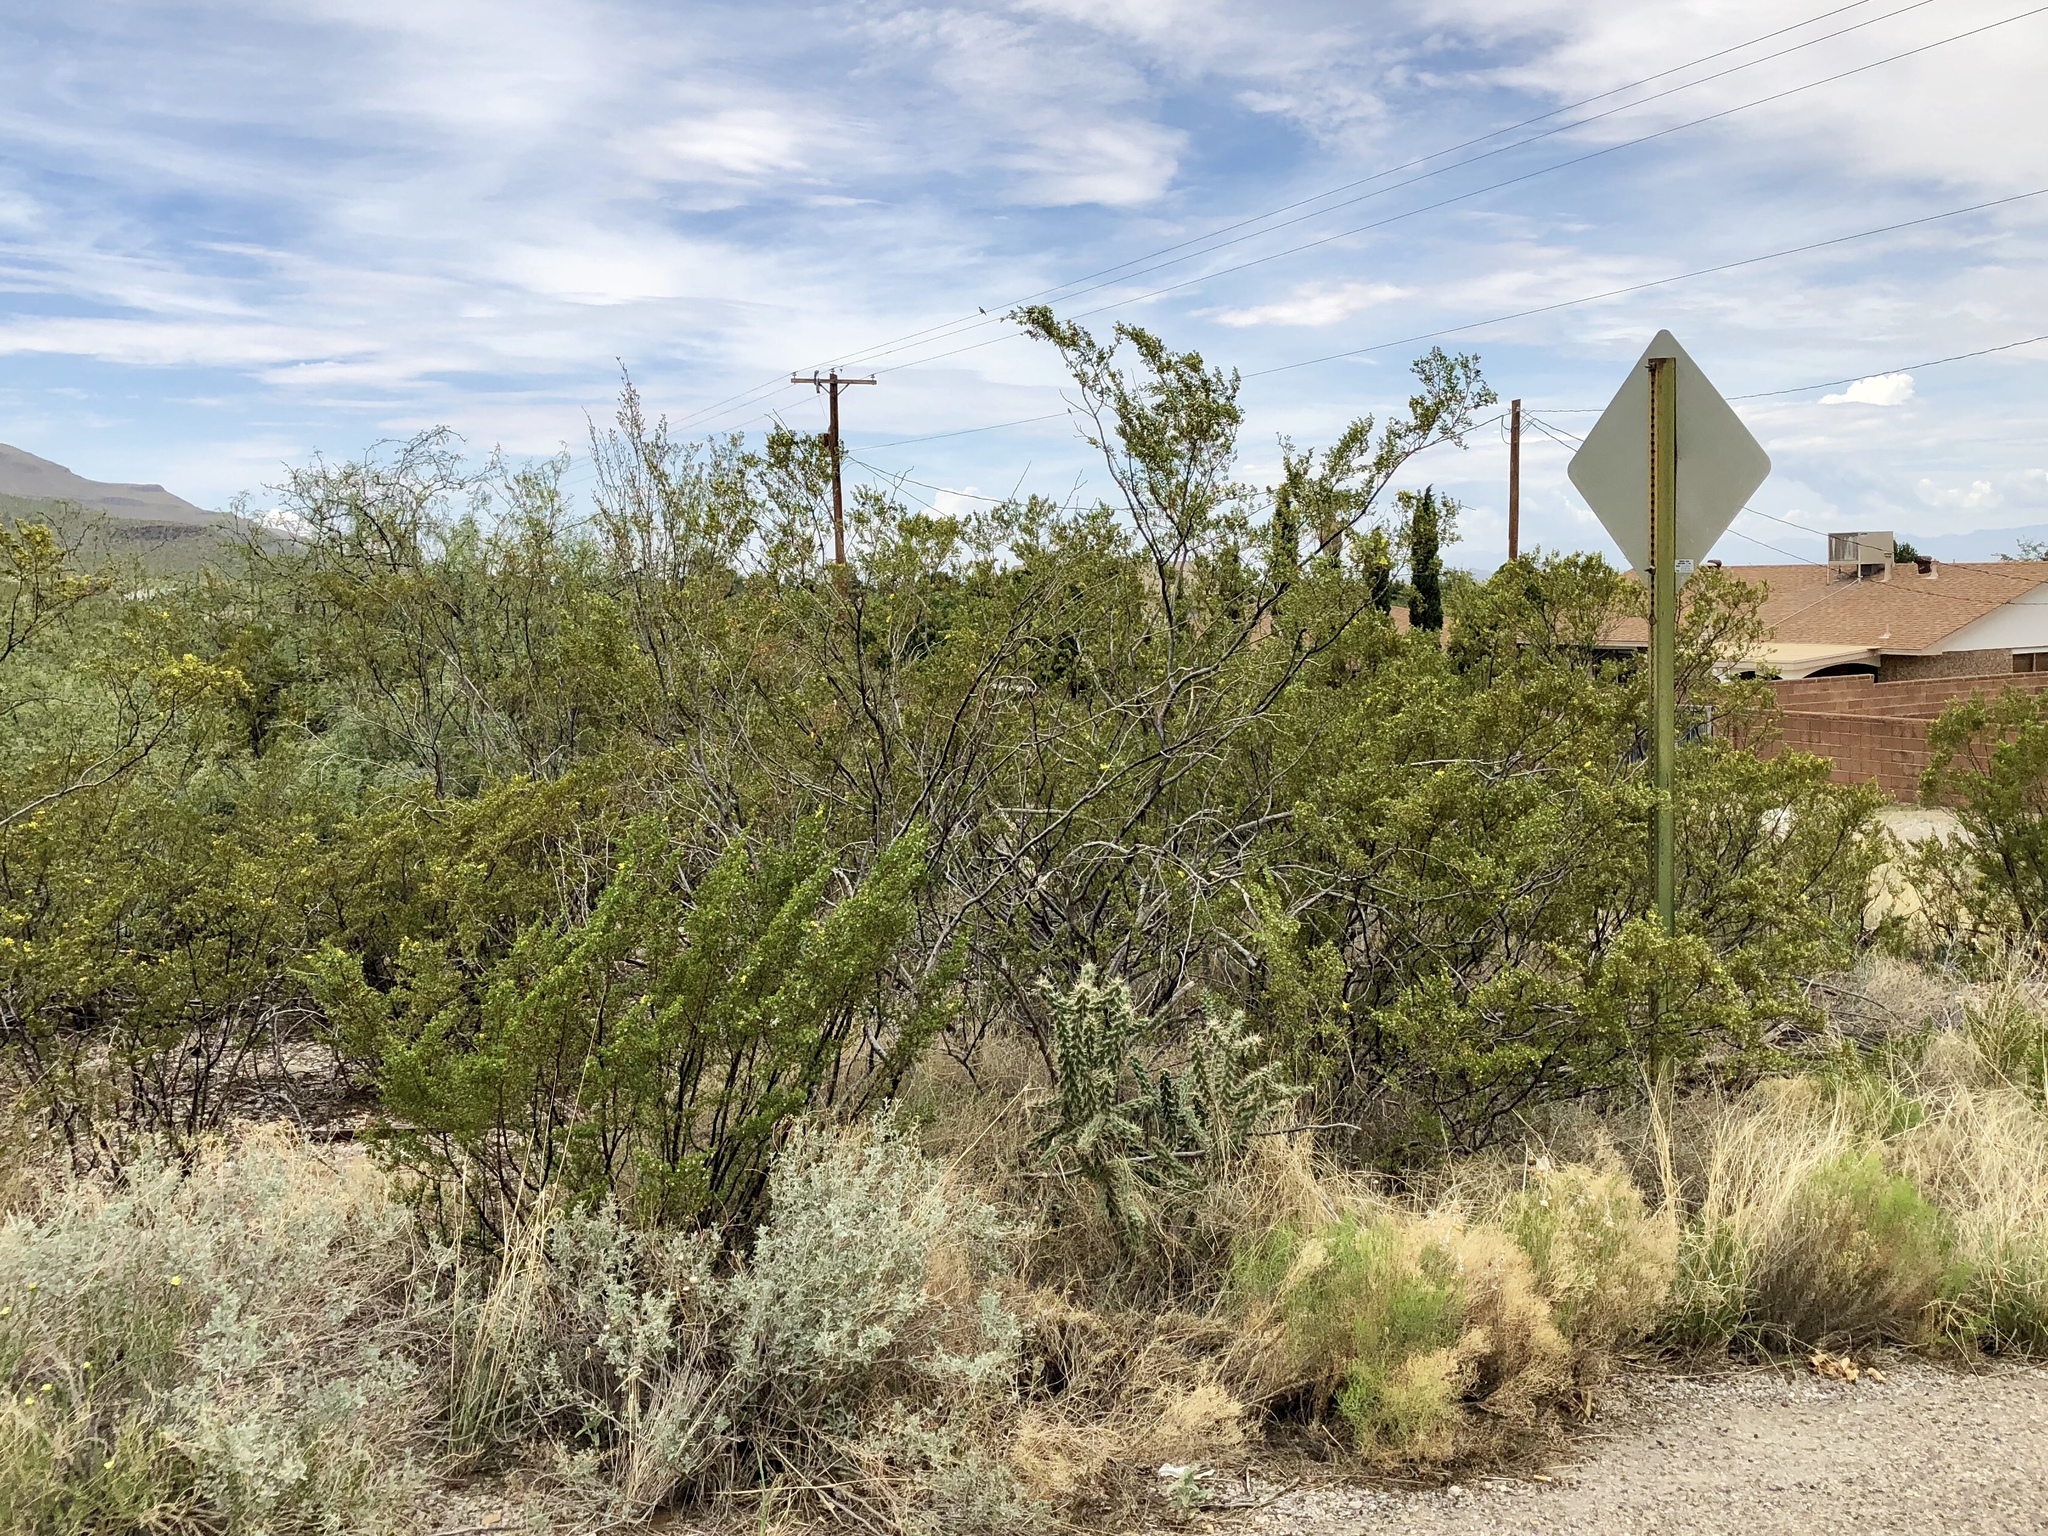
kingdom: Plantae
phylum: Tracheophyta
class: Magnoliopsida
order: Zygophyllales
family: Zygophyllaceae
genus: Larrea
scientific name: Larrea tridentata
